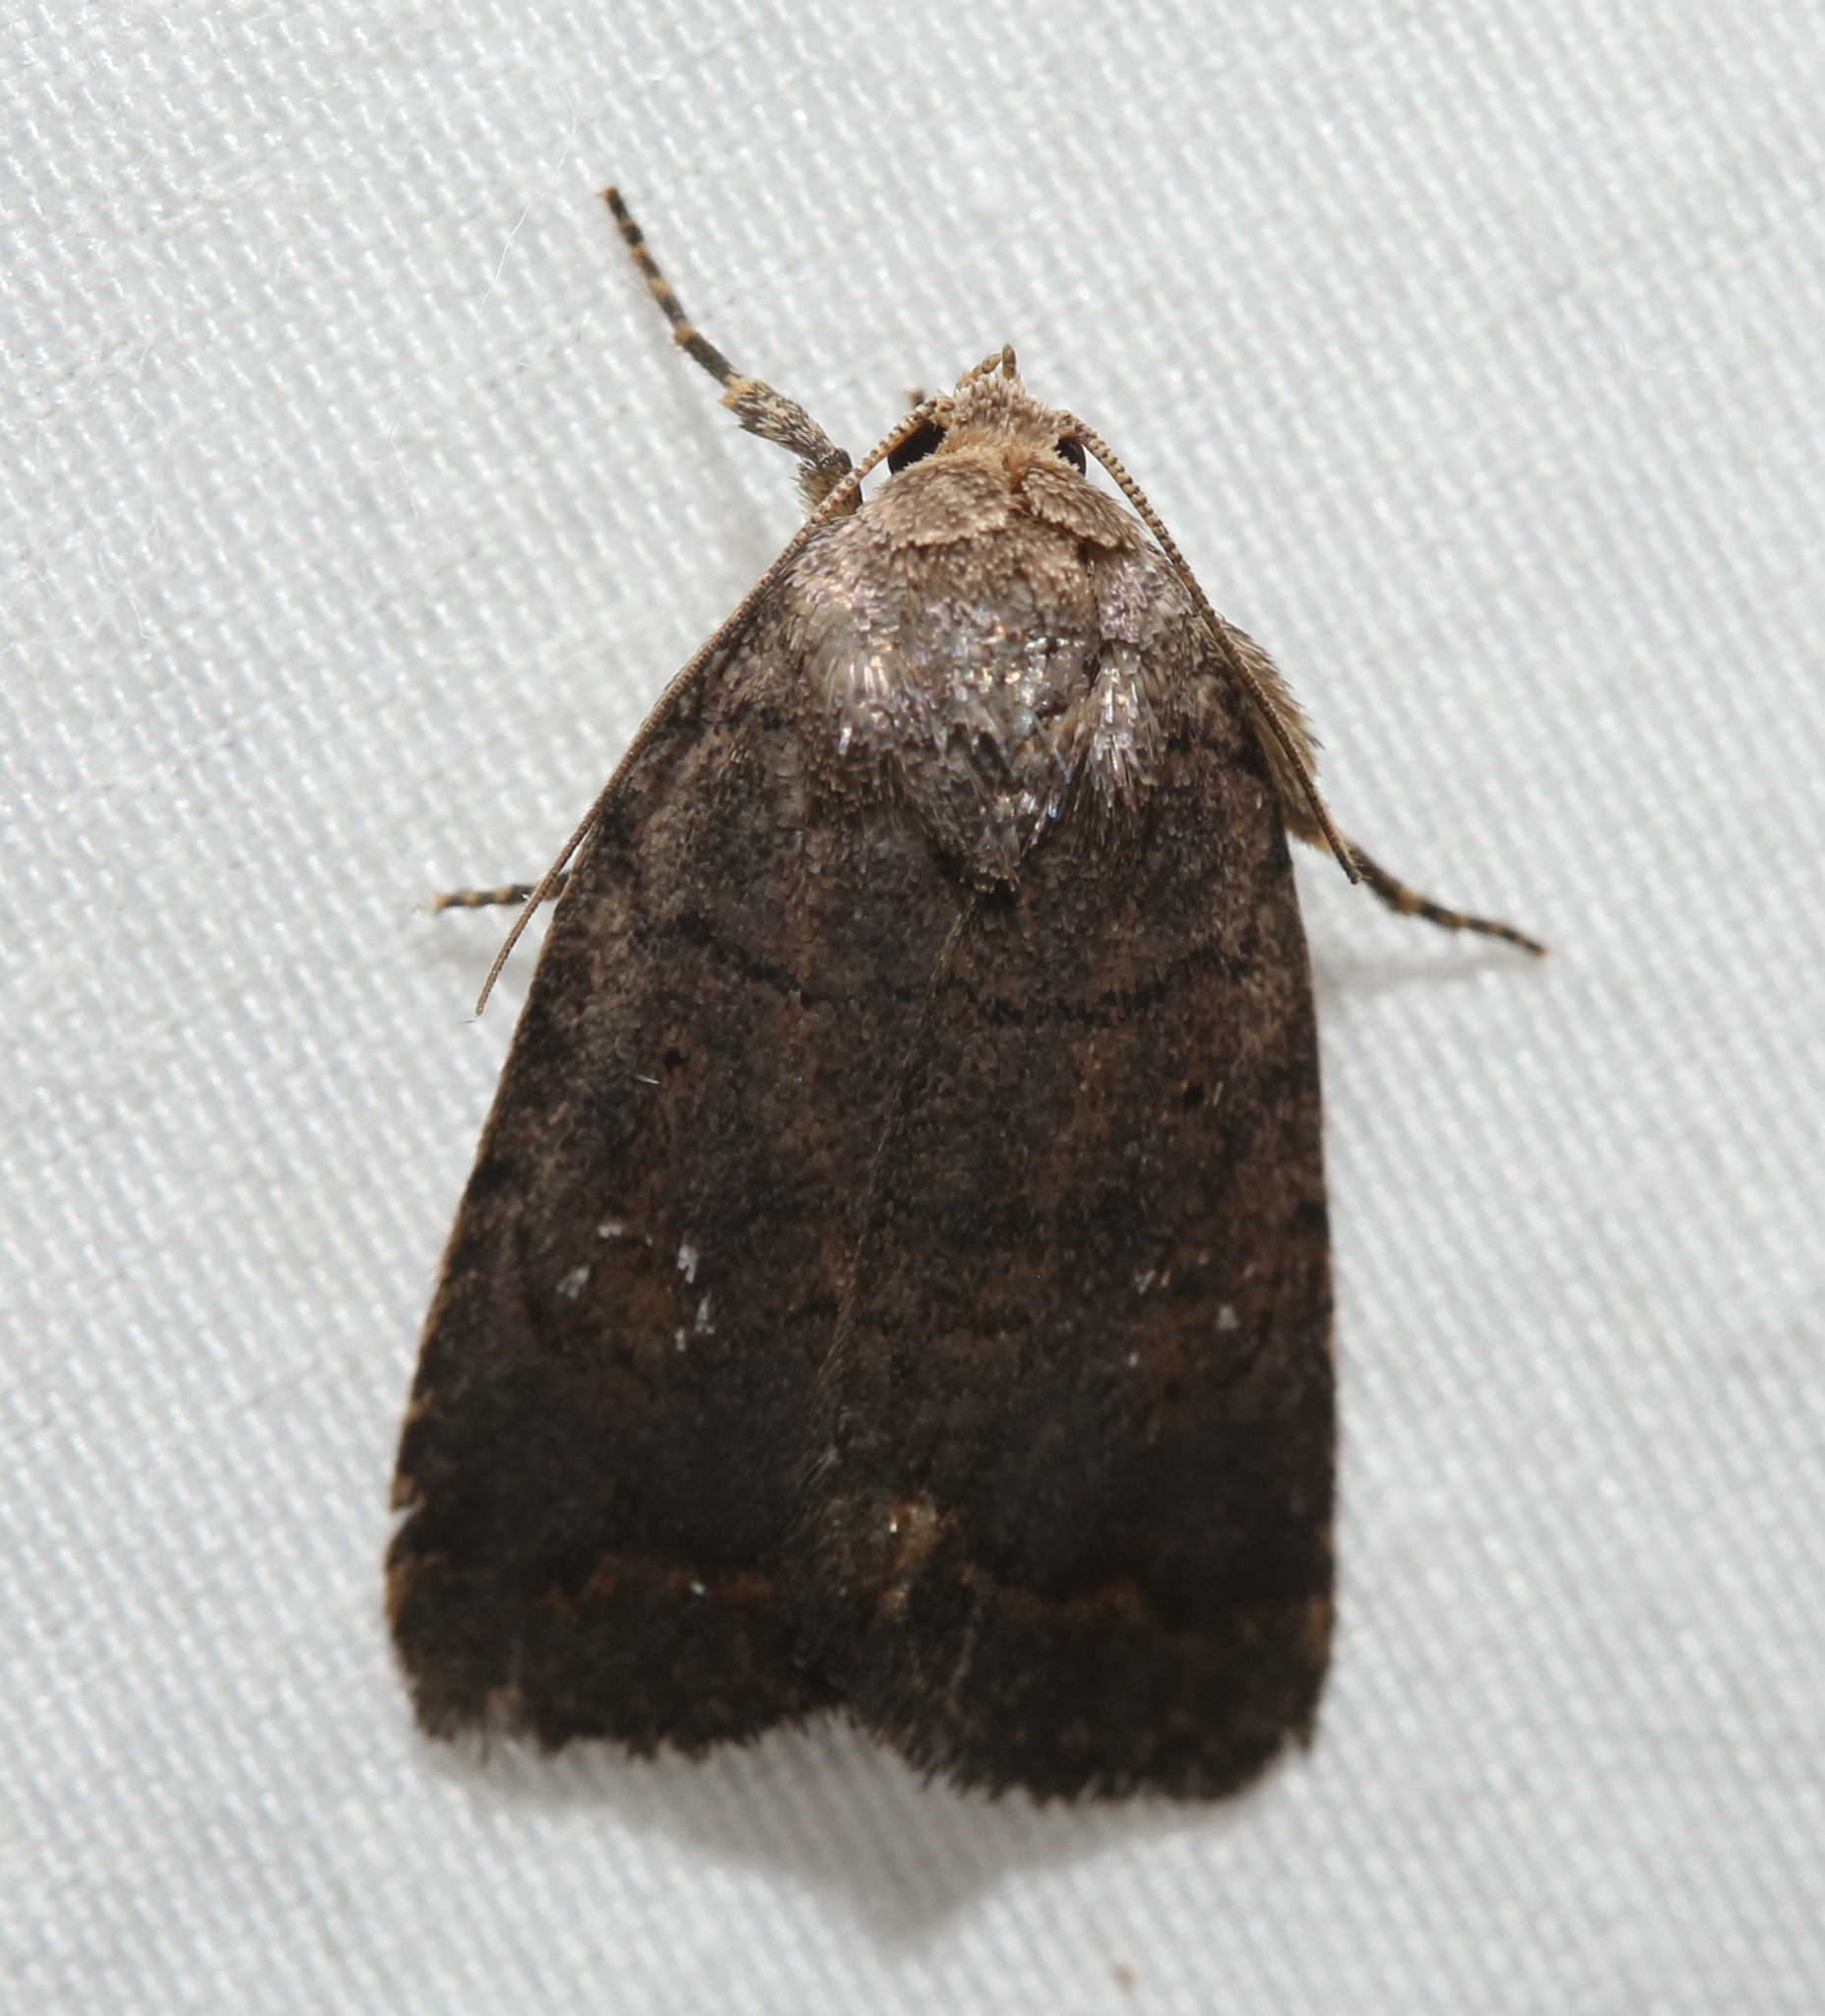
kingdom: Animalia
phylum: Arthropoda
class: Insecta
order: Lepidoptera
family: Noctuidae
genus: Athetis
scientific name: Athetis tarda
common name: Slowpoke moth
